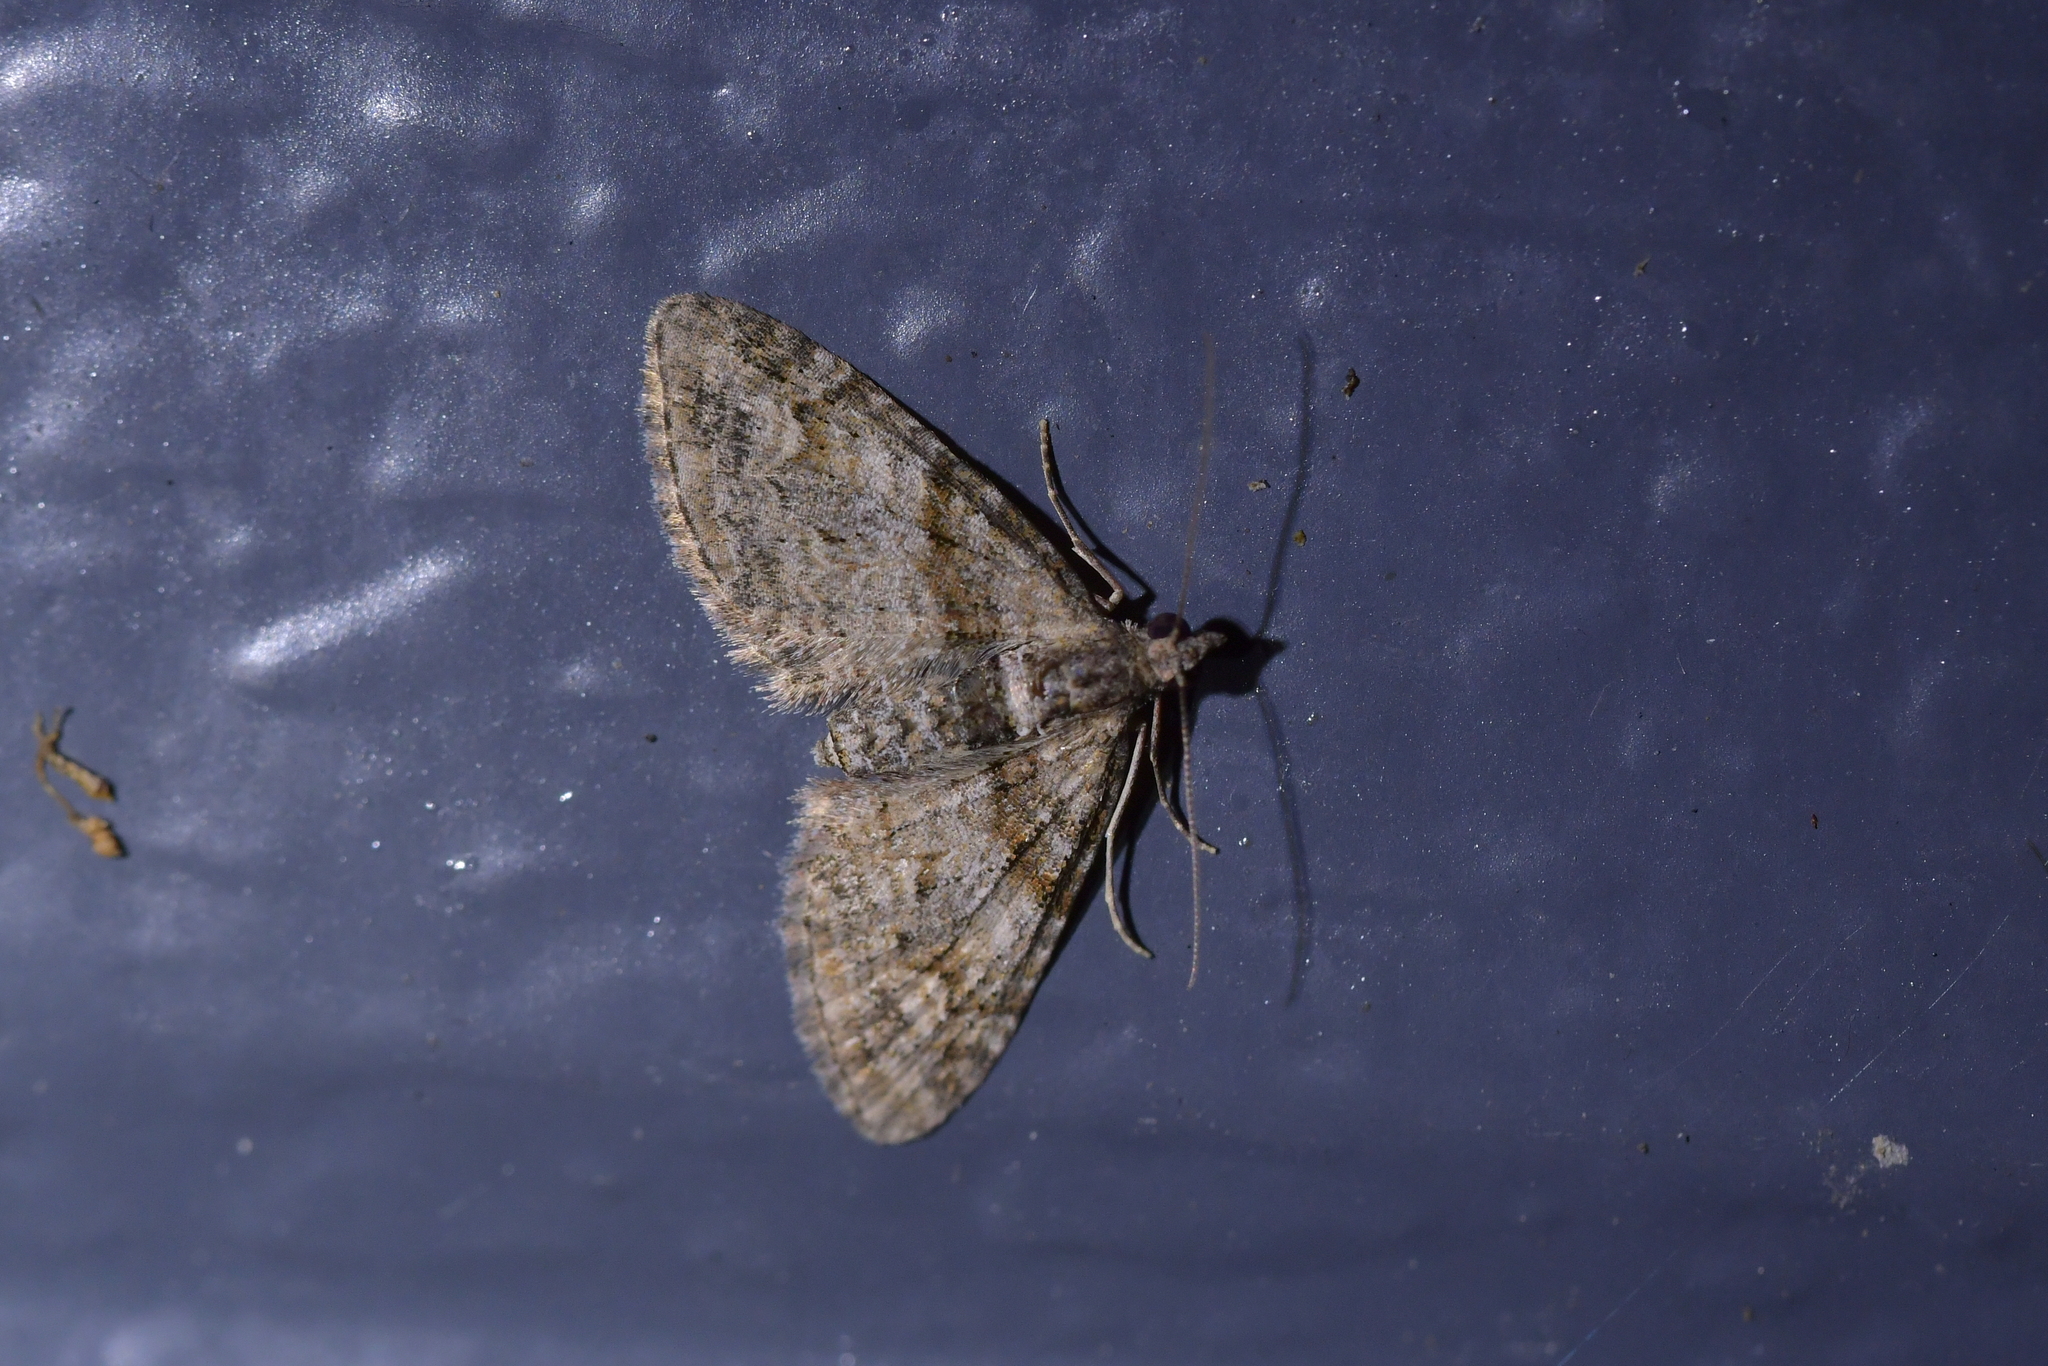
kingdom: Animalia
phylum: Arthropoda
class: Insecta
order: Lepidoptera
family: Geometridae
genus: Phrissogonus
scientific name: Phrissogonus laticostata
